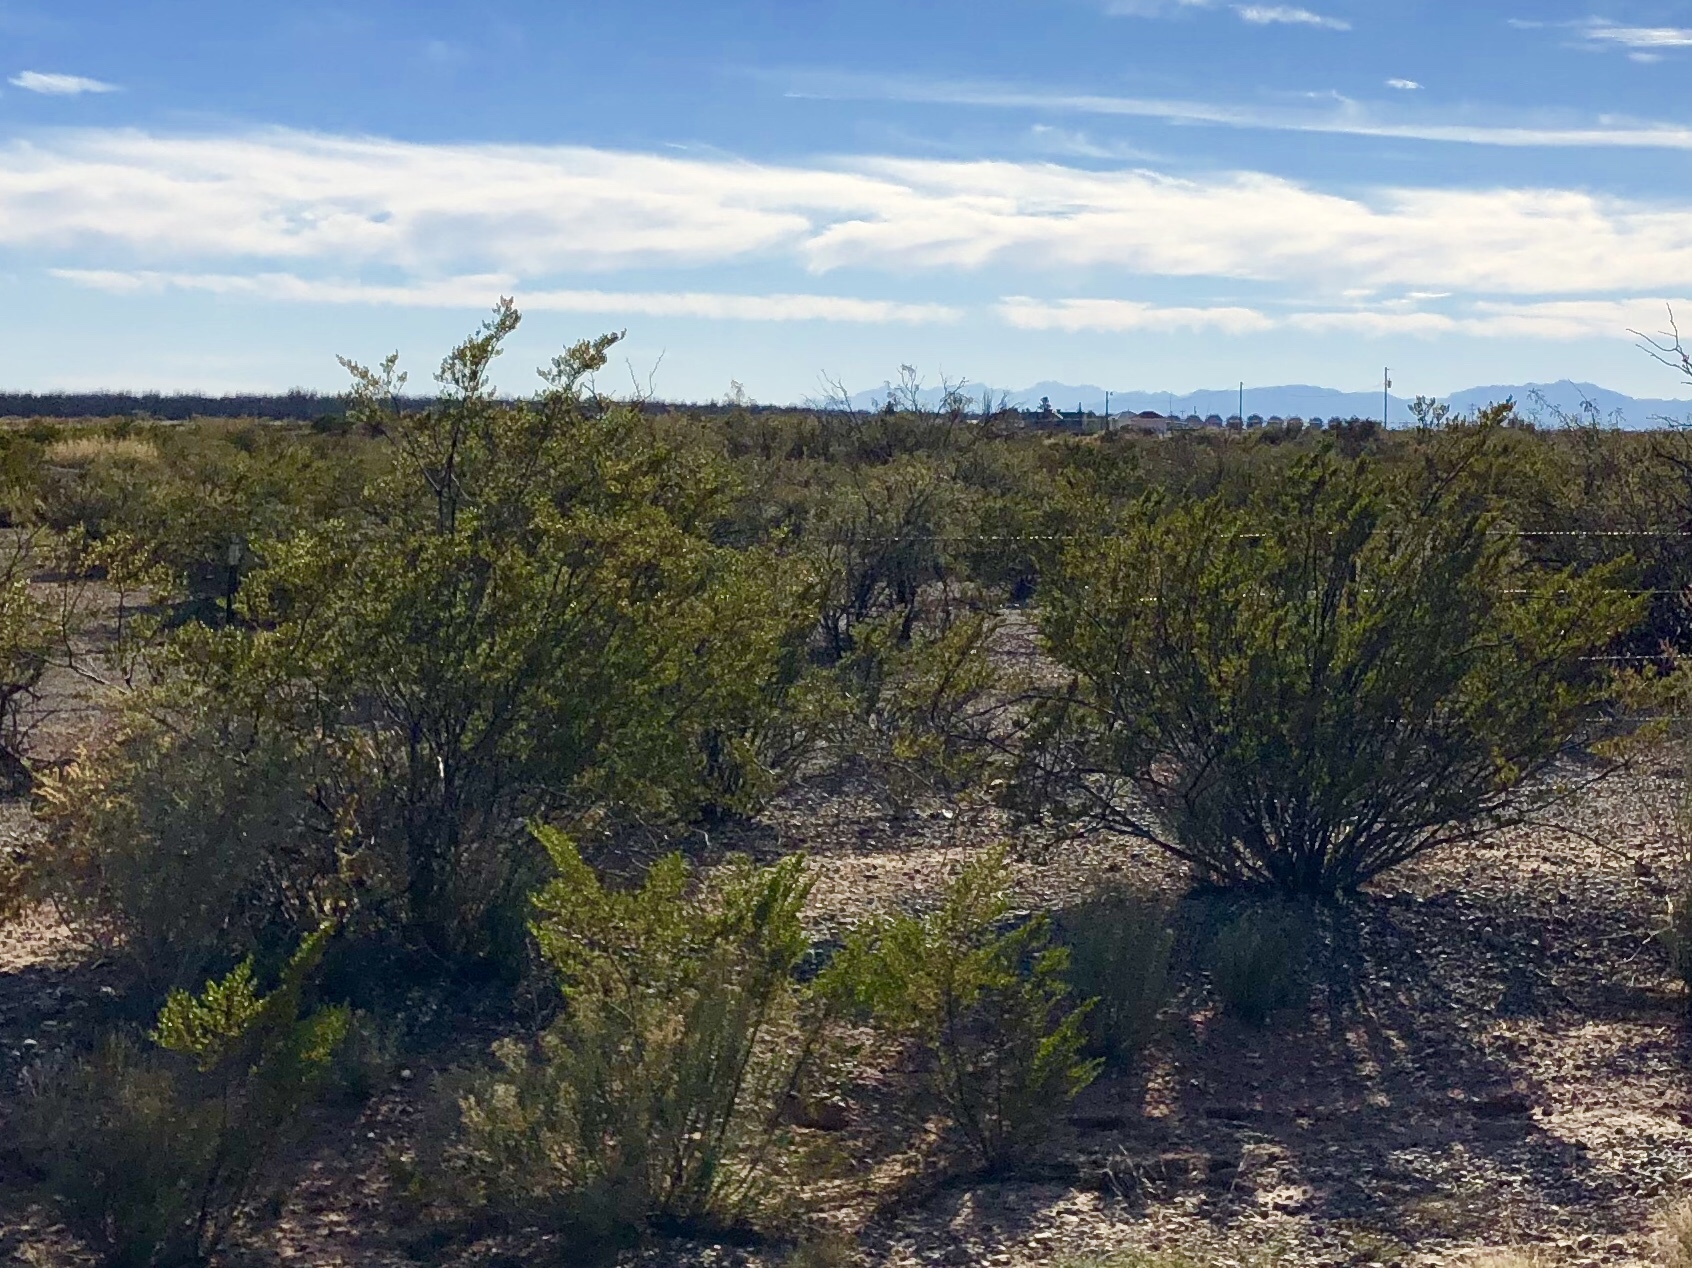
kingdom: Plantae
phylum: Tracheophyta
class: Magnoliopsida
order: Zygophyllales
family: Zygophyllaceae
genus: Larrea
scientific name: Larrea tridentata
